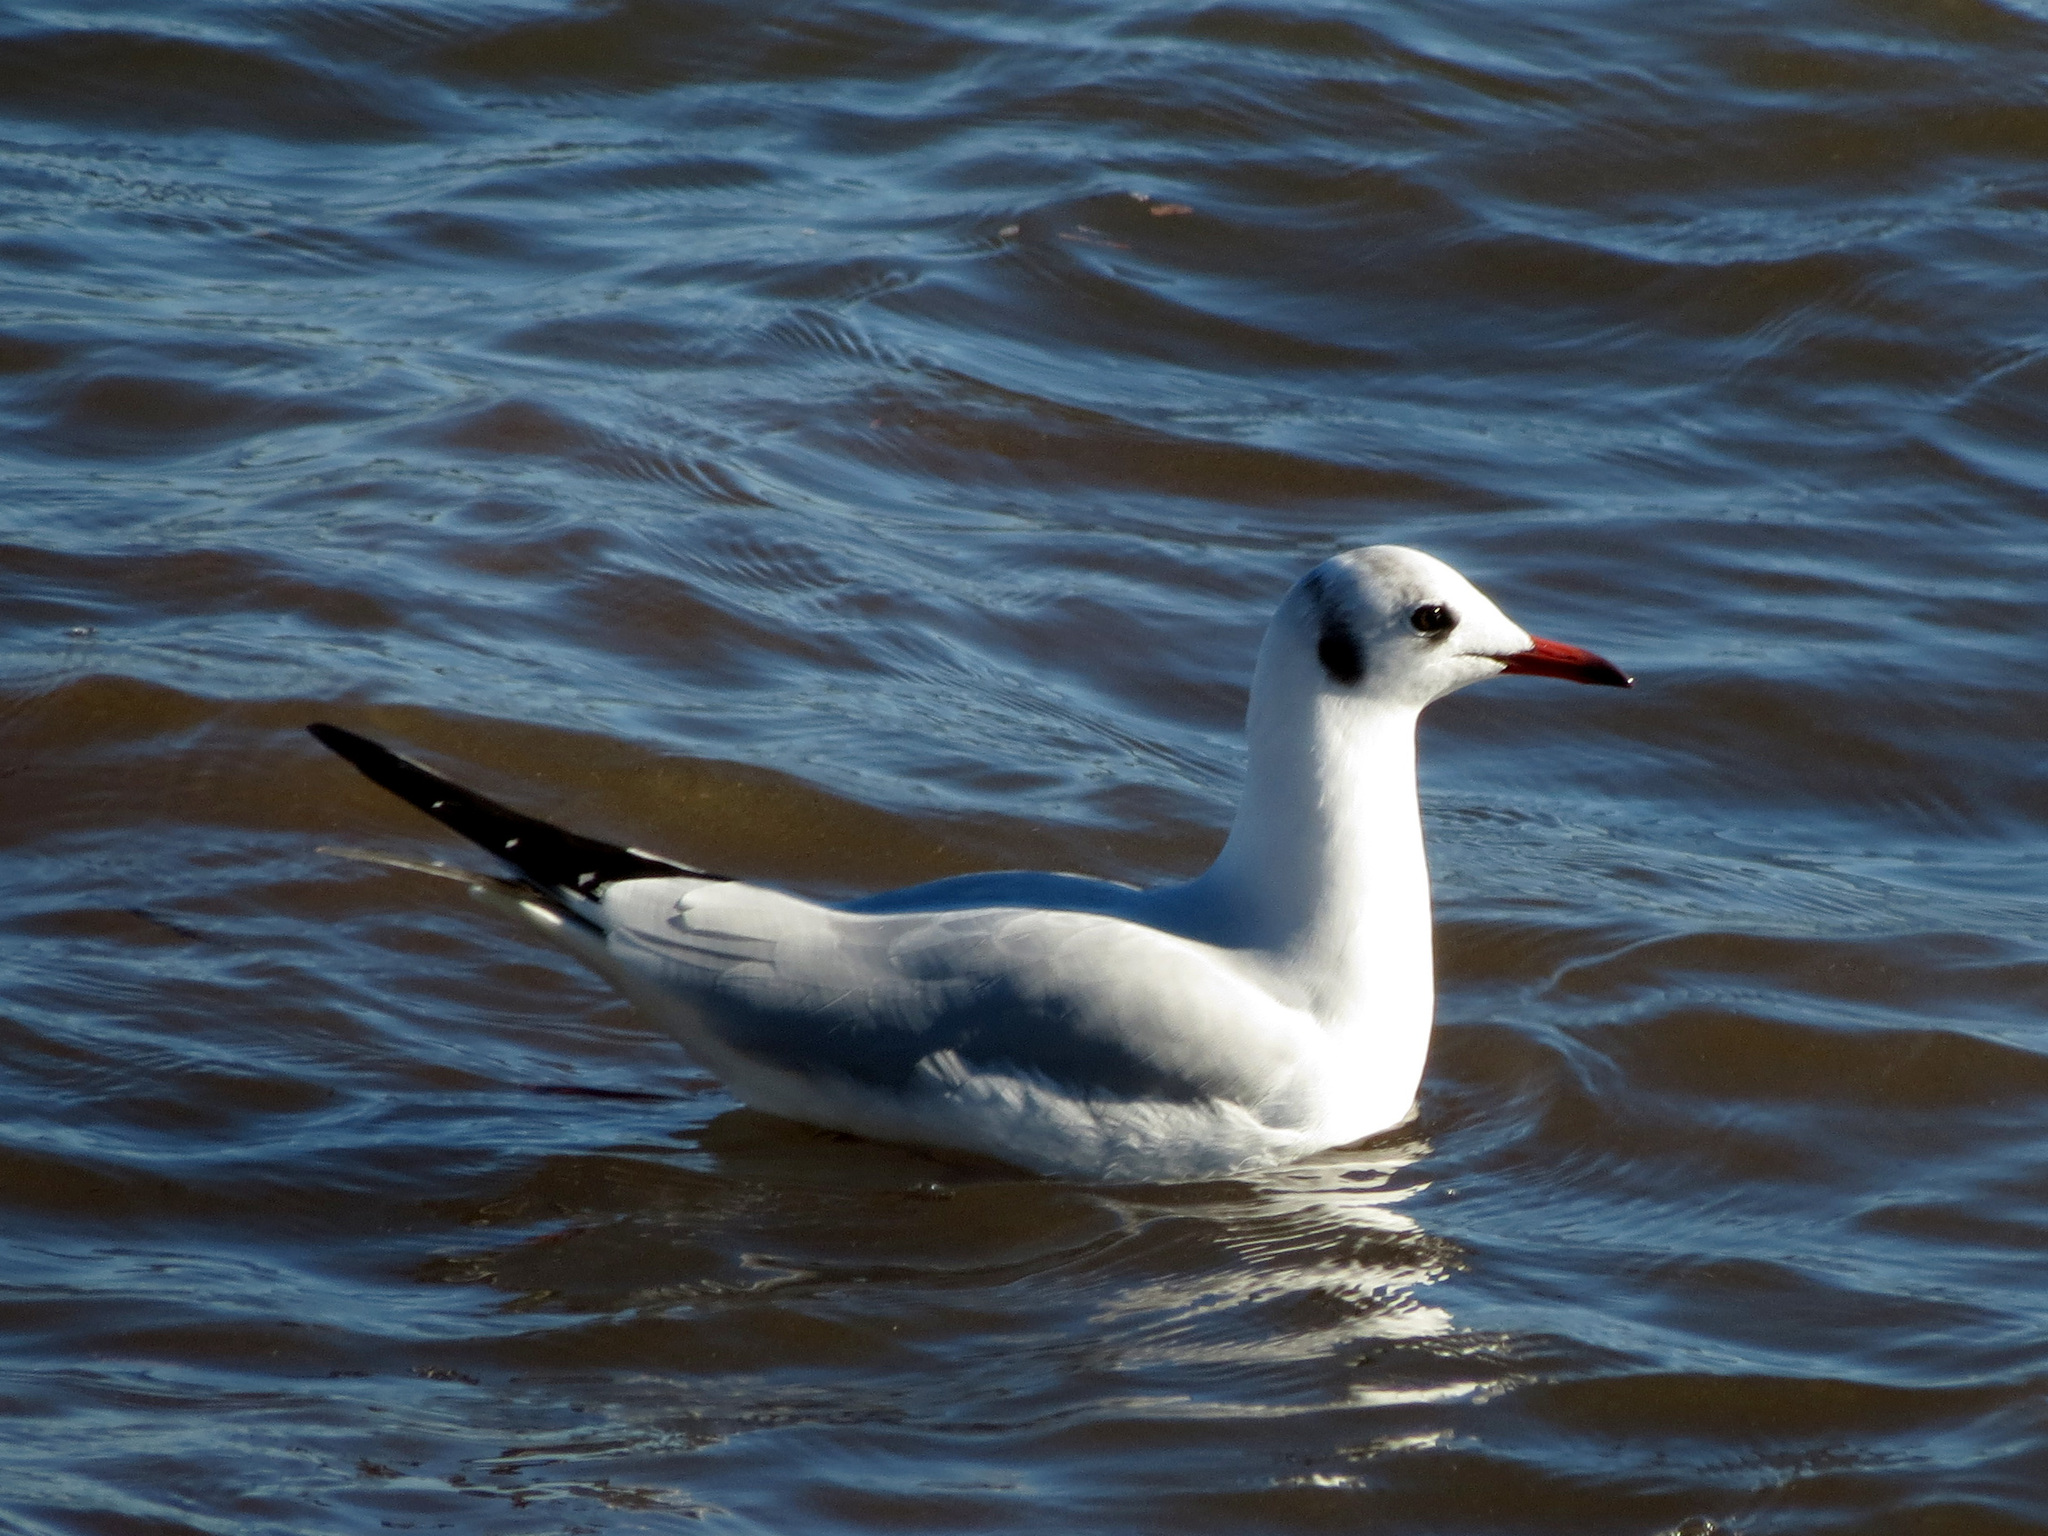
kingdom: Animalia
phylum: Chordata
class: Aves
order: Charadriiformes
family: Laridae
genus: Chroicocephalus
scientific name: Chroicocephalus ridibundus
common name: Black-headed gull
